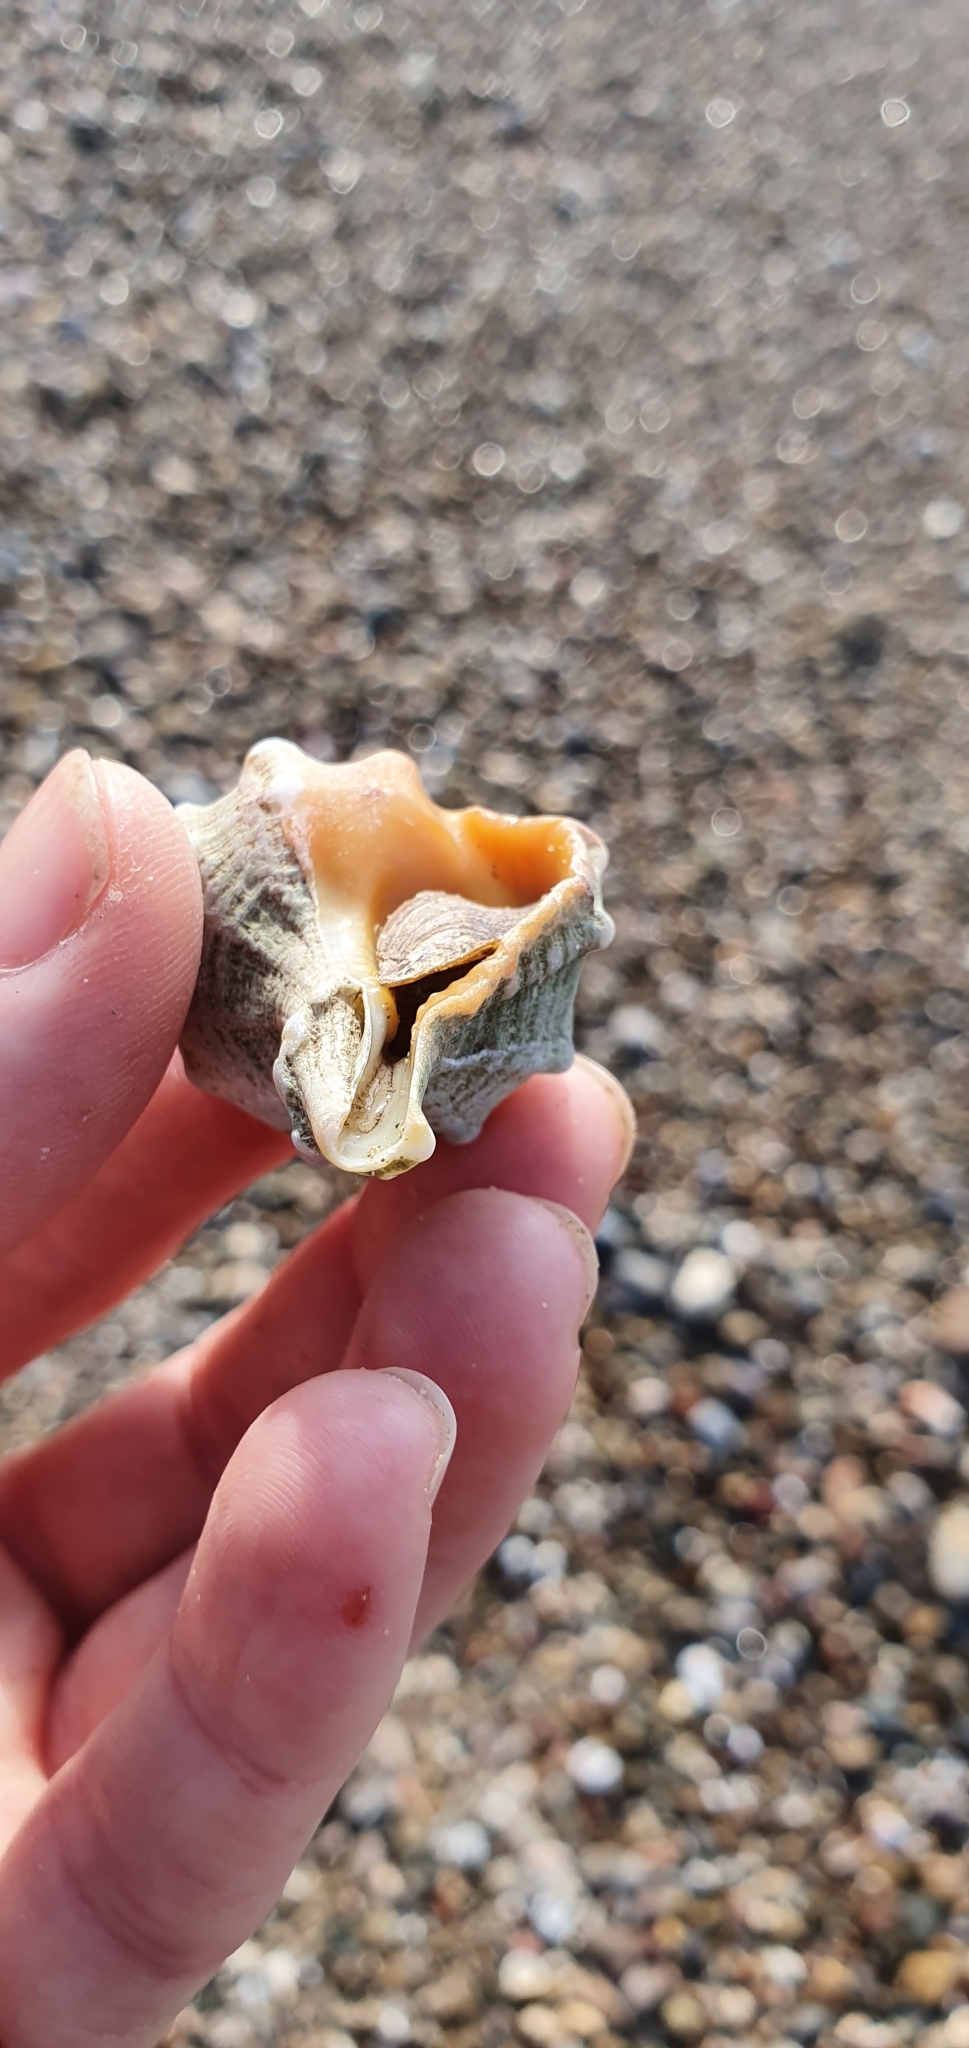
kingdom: Animalia
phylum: Mollusca
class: Gastropoda
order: Neogastropoda
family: Muricidae
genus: Bolinus
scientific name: Bolinus brandaris
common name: Dye murex
